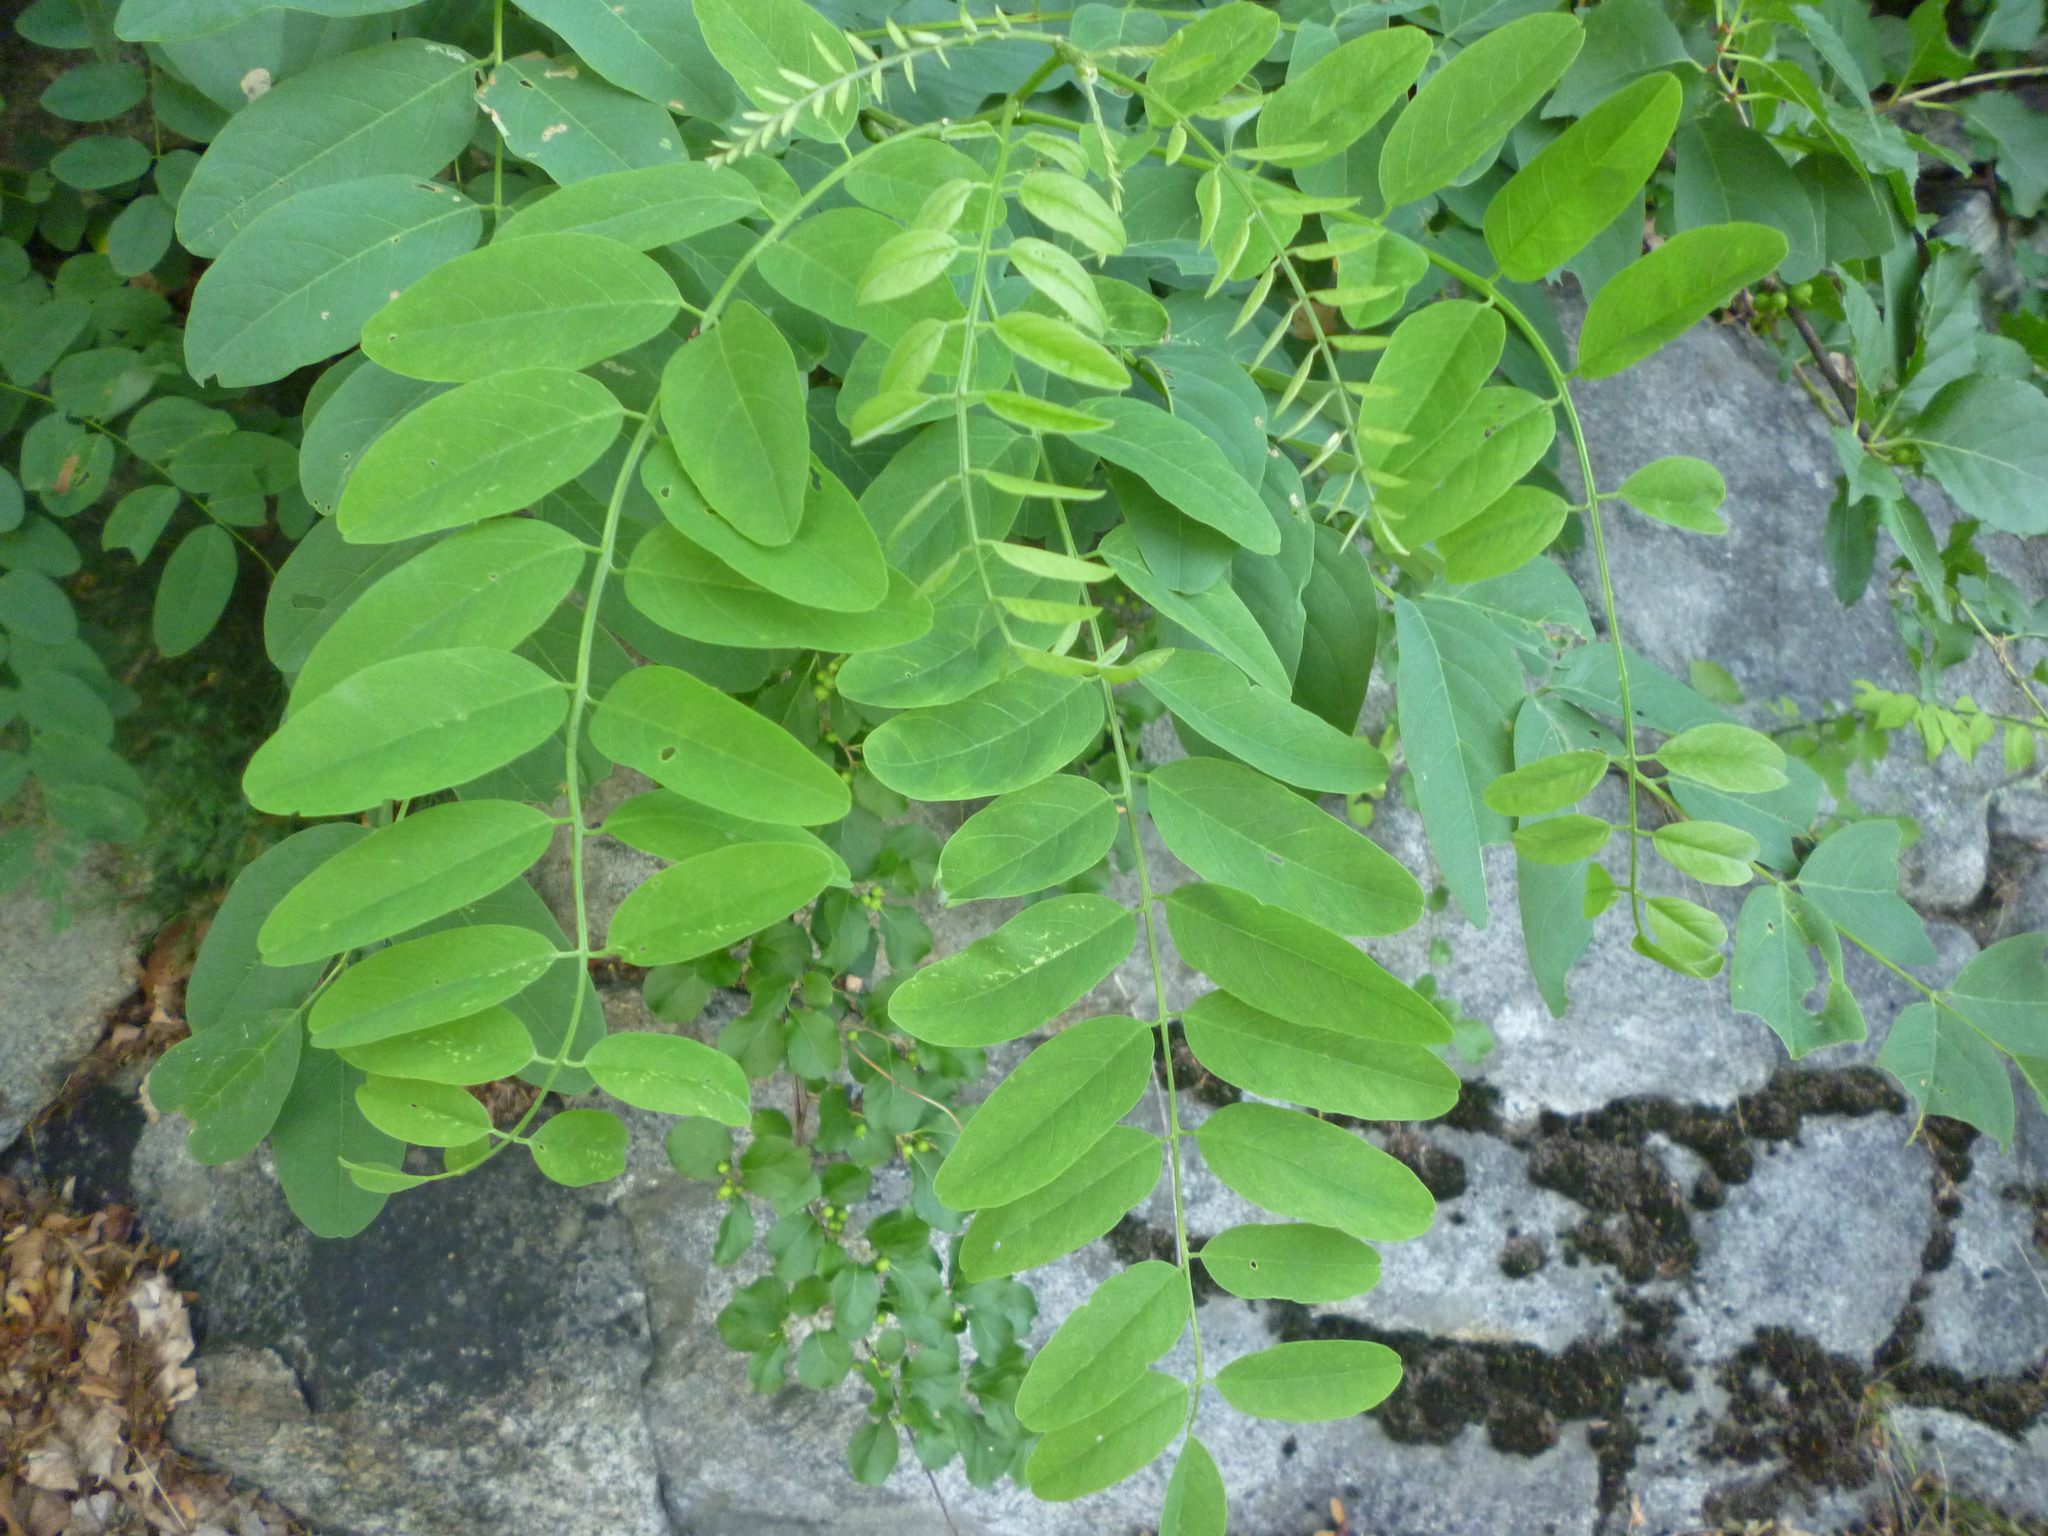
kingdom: Plantae
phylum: Tracheophyta
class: Magnoliopsida
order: Fabales
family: Fabaceae
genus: Robinia
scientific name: Robinia pseudoacacia
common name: Black locust
